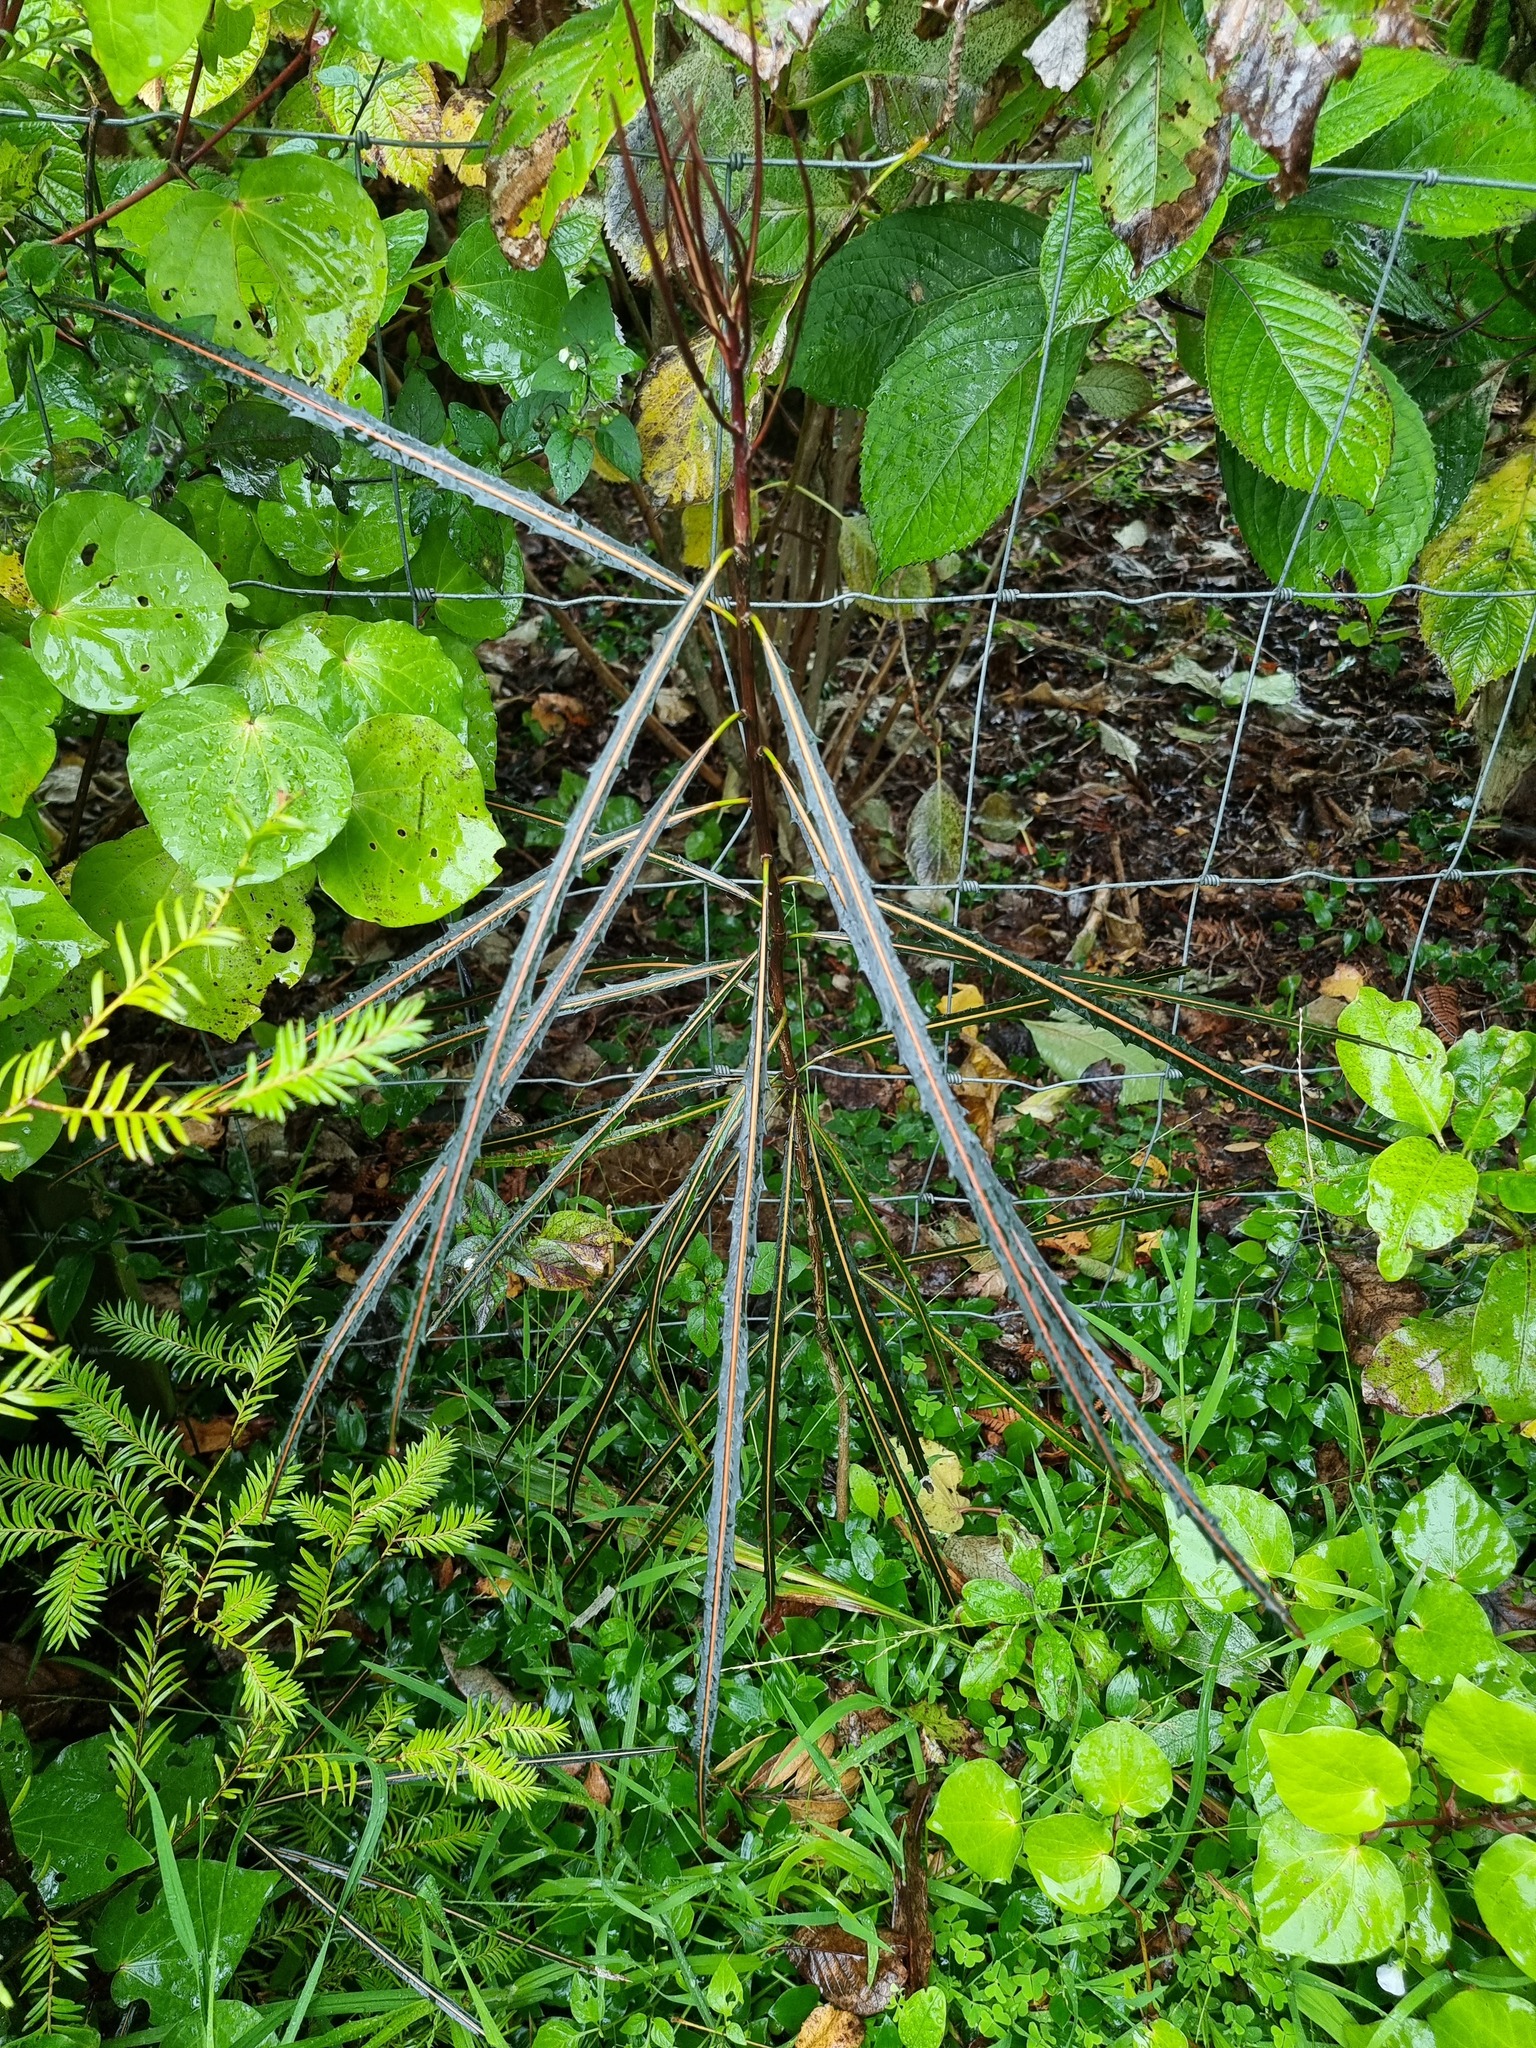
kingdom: Plantae
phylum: Tracheophyta
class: Magnoliopsida
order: Apiales
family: Araliaceae
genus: Pseudopanax
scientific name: Pseudopanax crassifolius
